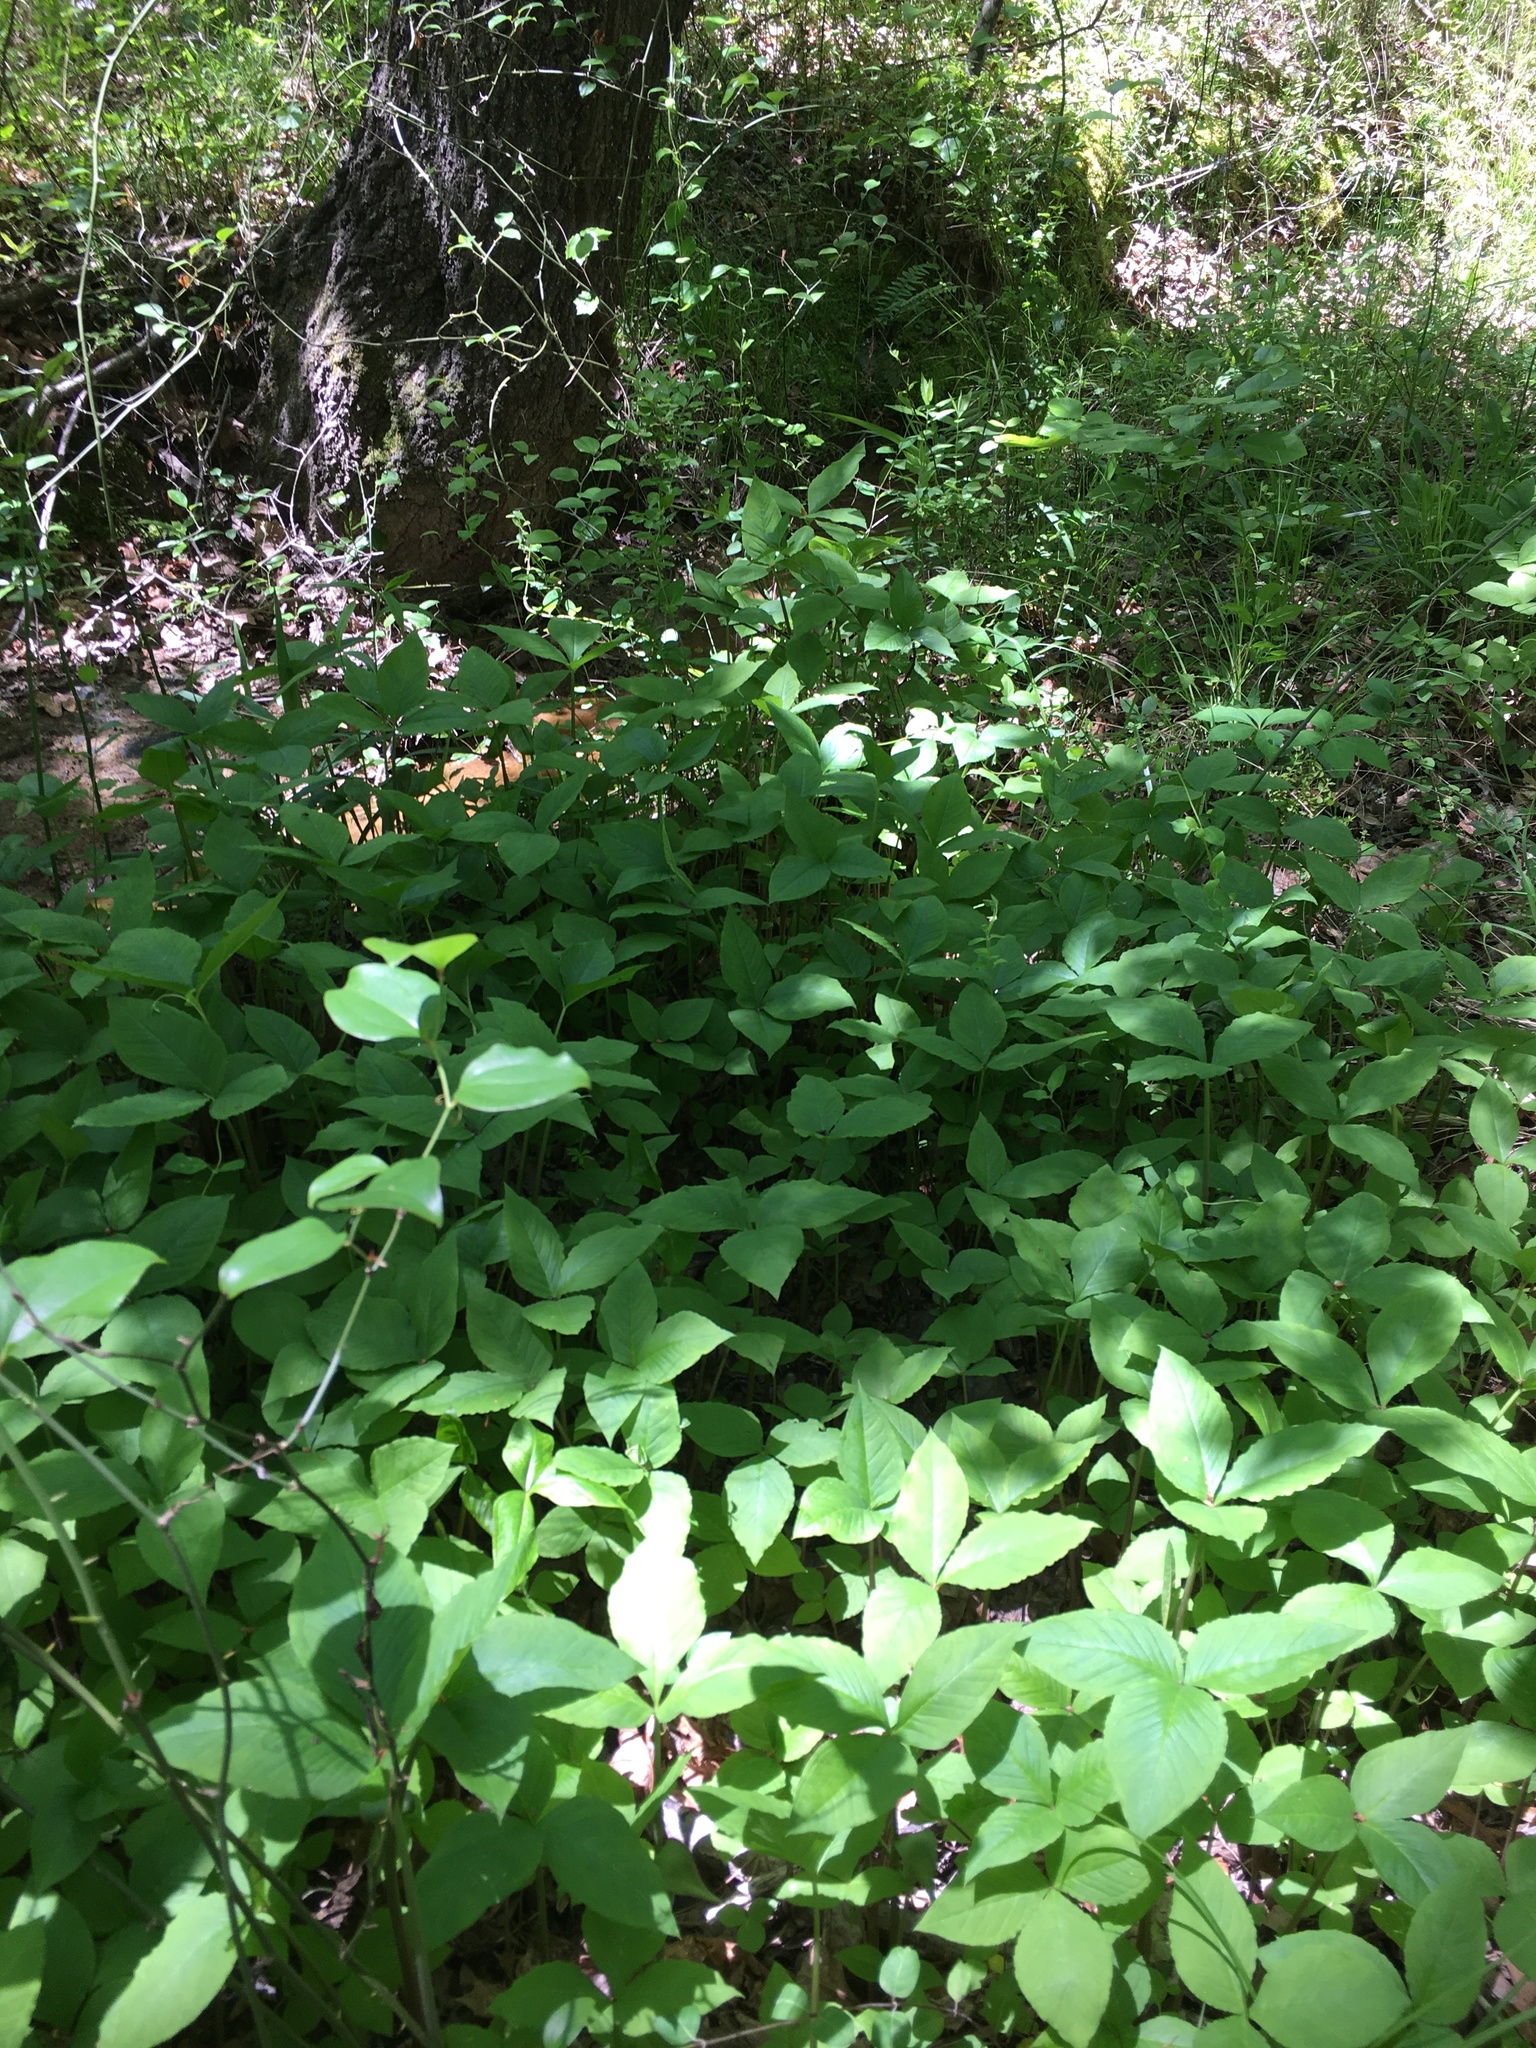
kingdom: Plantae
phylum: Tracheophyta
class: Liliopsida
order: Alismatales
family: Araceae
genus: Arisaema
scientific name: Arisaema triphyllum
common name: Jack-in-the-pulpit
